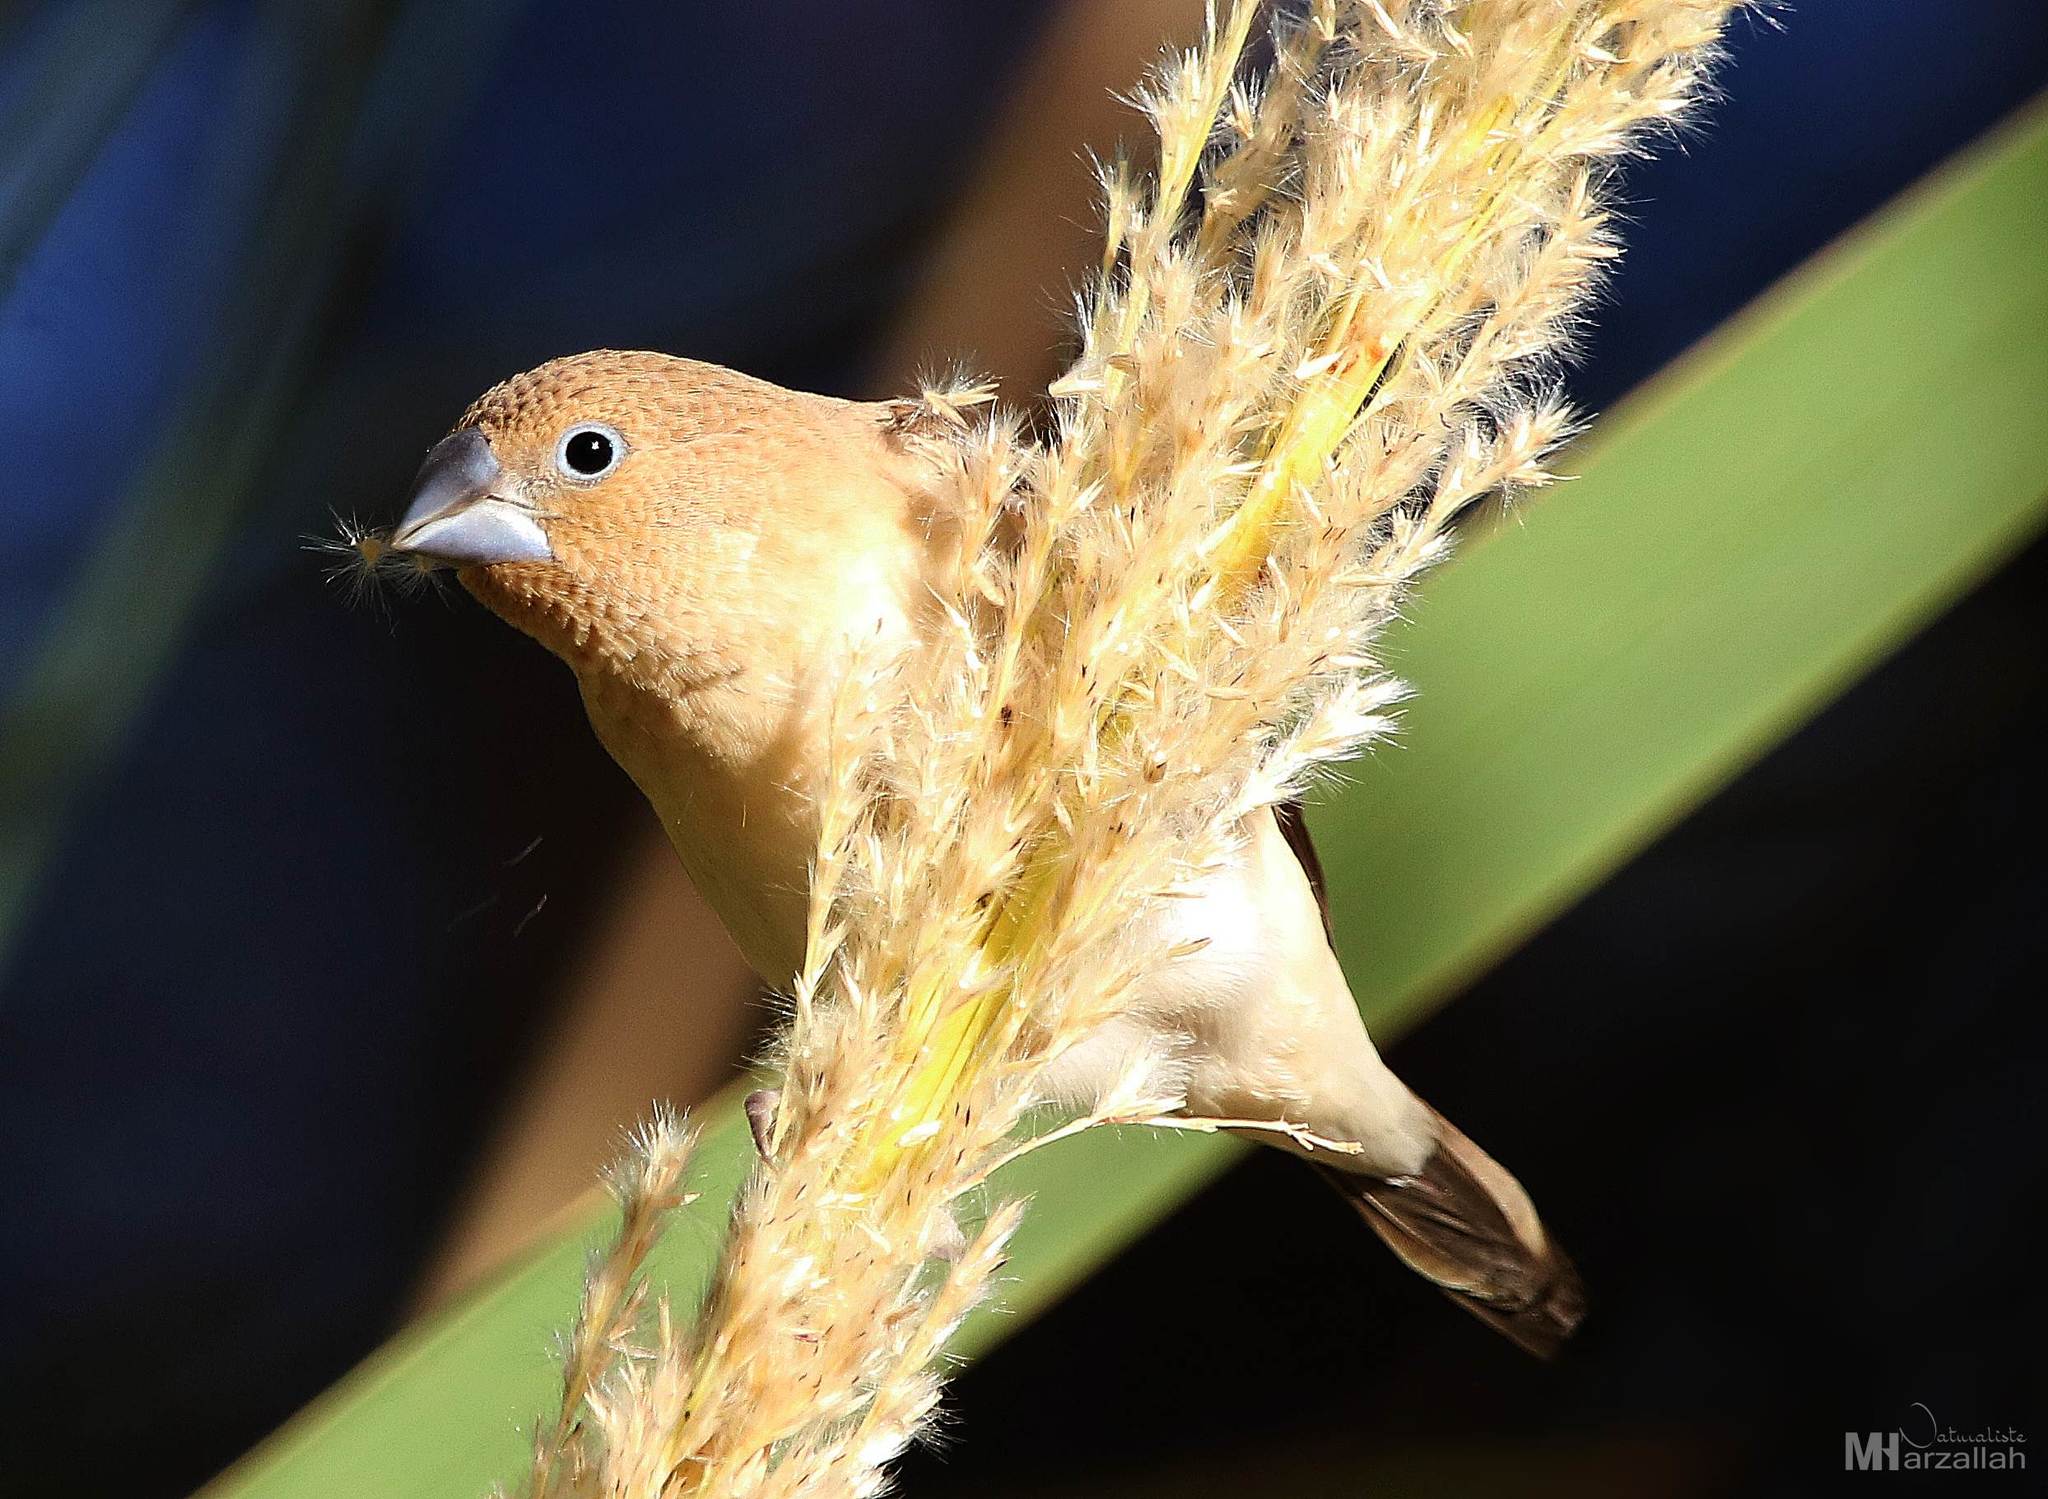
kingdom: Animalia
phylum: Chordata
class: Aves
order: Passeriformes
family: Estrildidae
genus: Euodice
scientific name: Euodice cantans
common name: African silverbill
